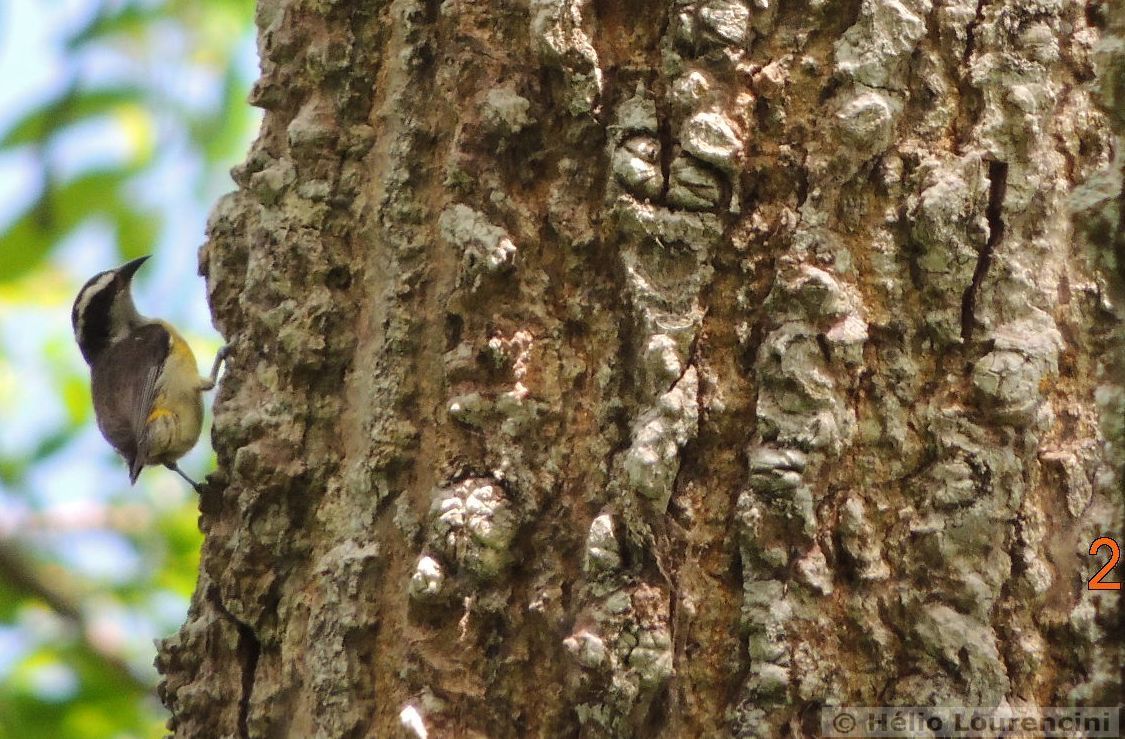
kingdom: Animalia
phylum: Chordata
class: Aves
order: Passeriformes
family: Thraupidae
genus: Coereba
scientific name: Coereba flaveola
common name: Bananaquit
